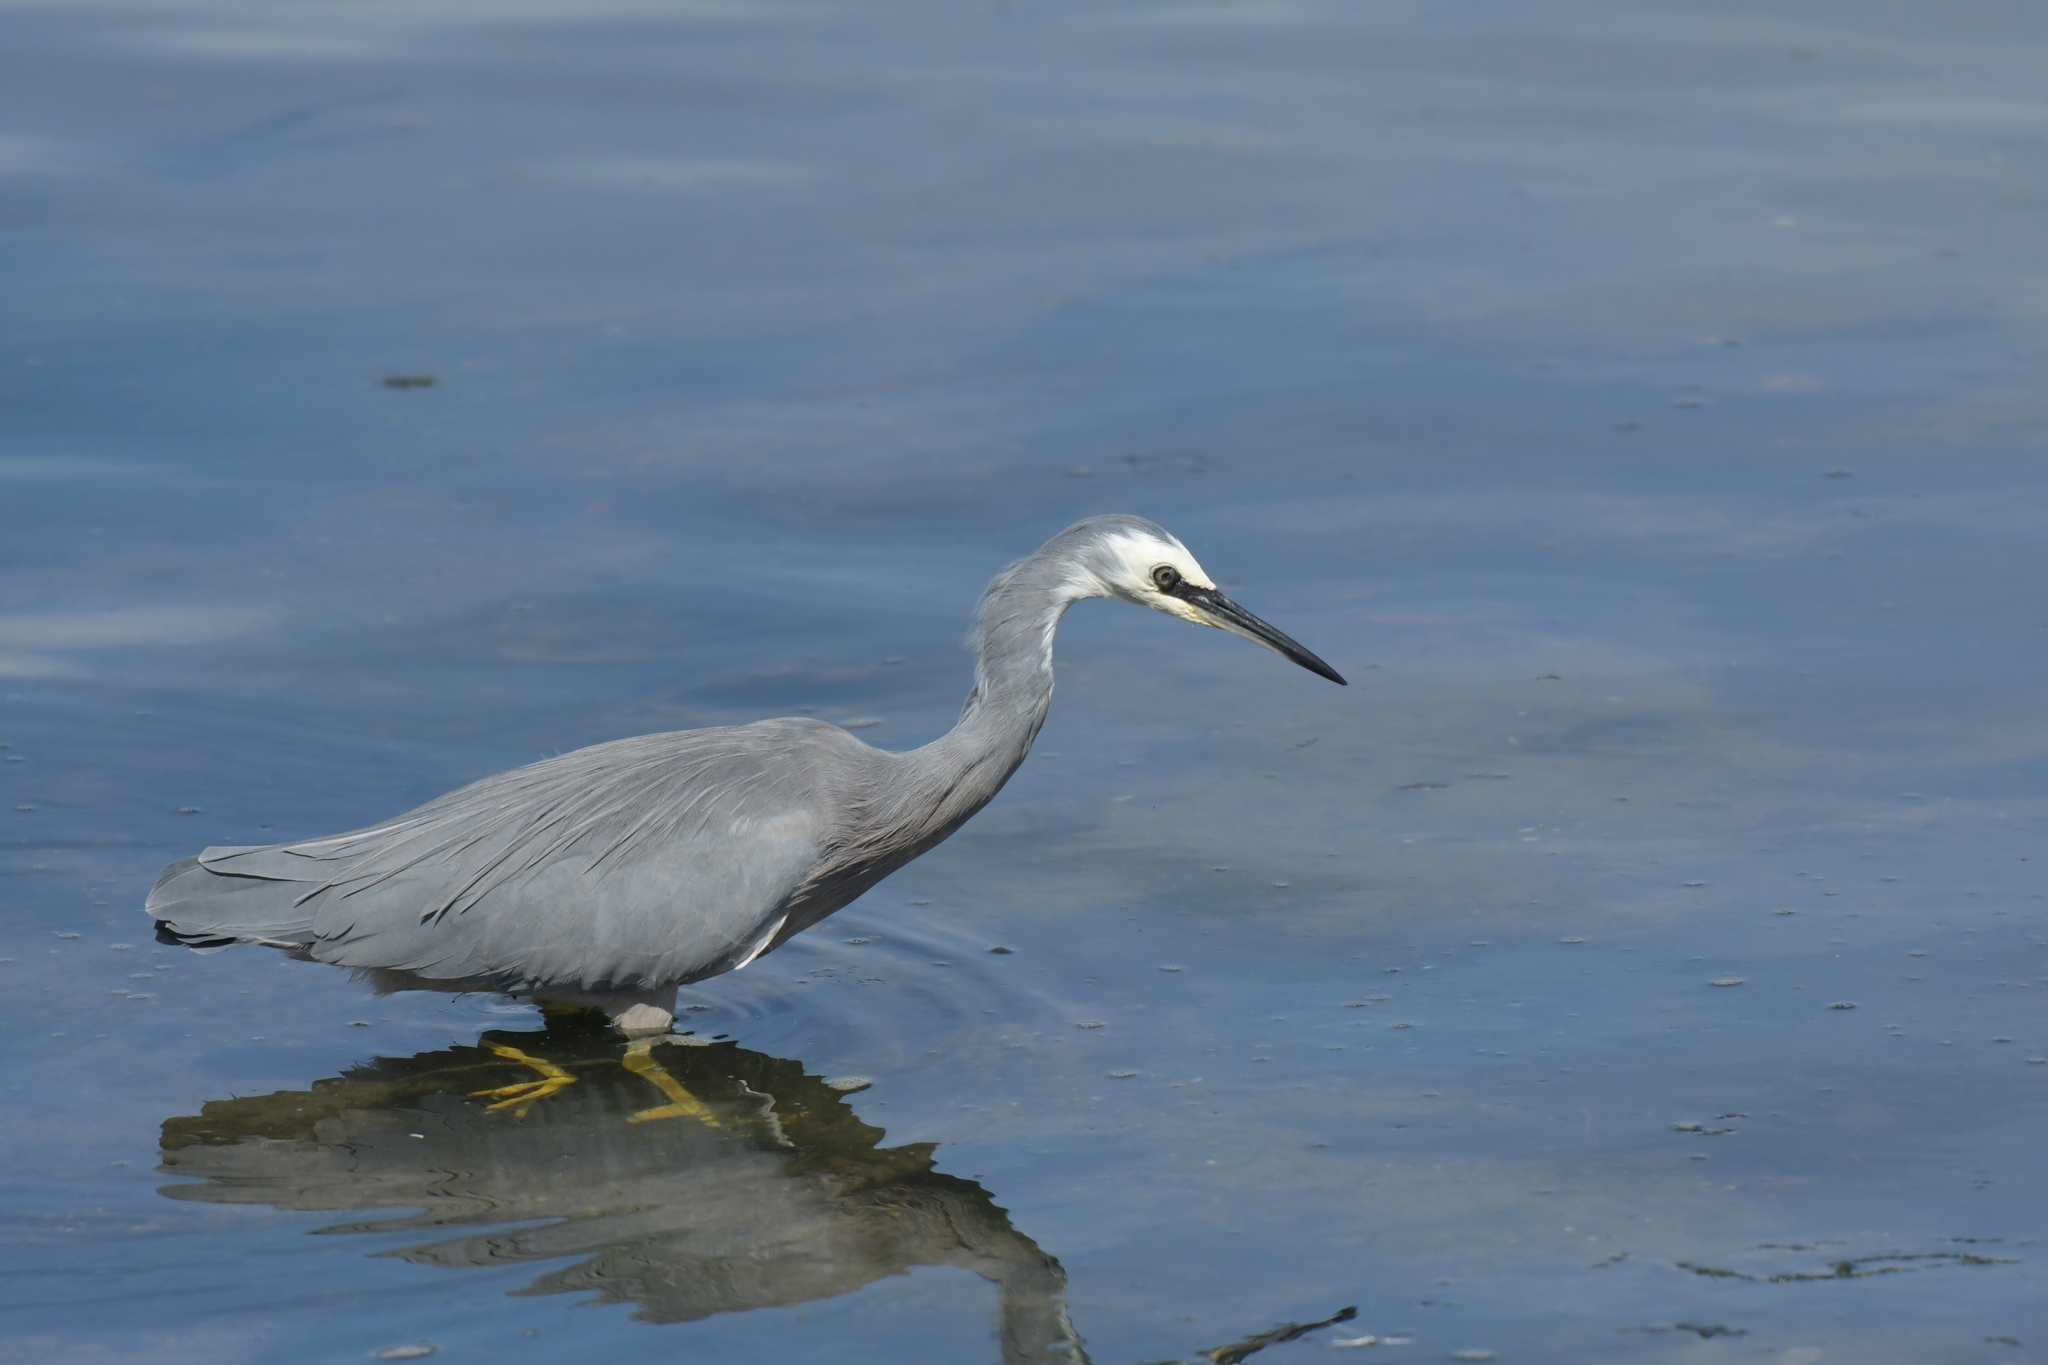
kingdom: Animalia
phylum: Chordata
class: Aves
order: Pelecaniformes
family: Ardeidae
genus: Egretta
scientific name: Egretta novaehollandiae
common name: White-faced heron
